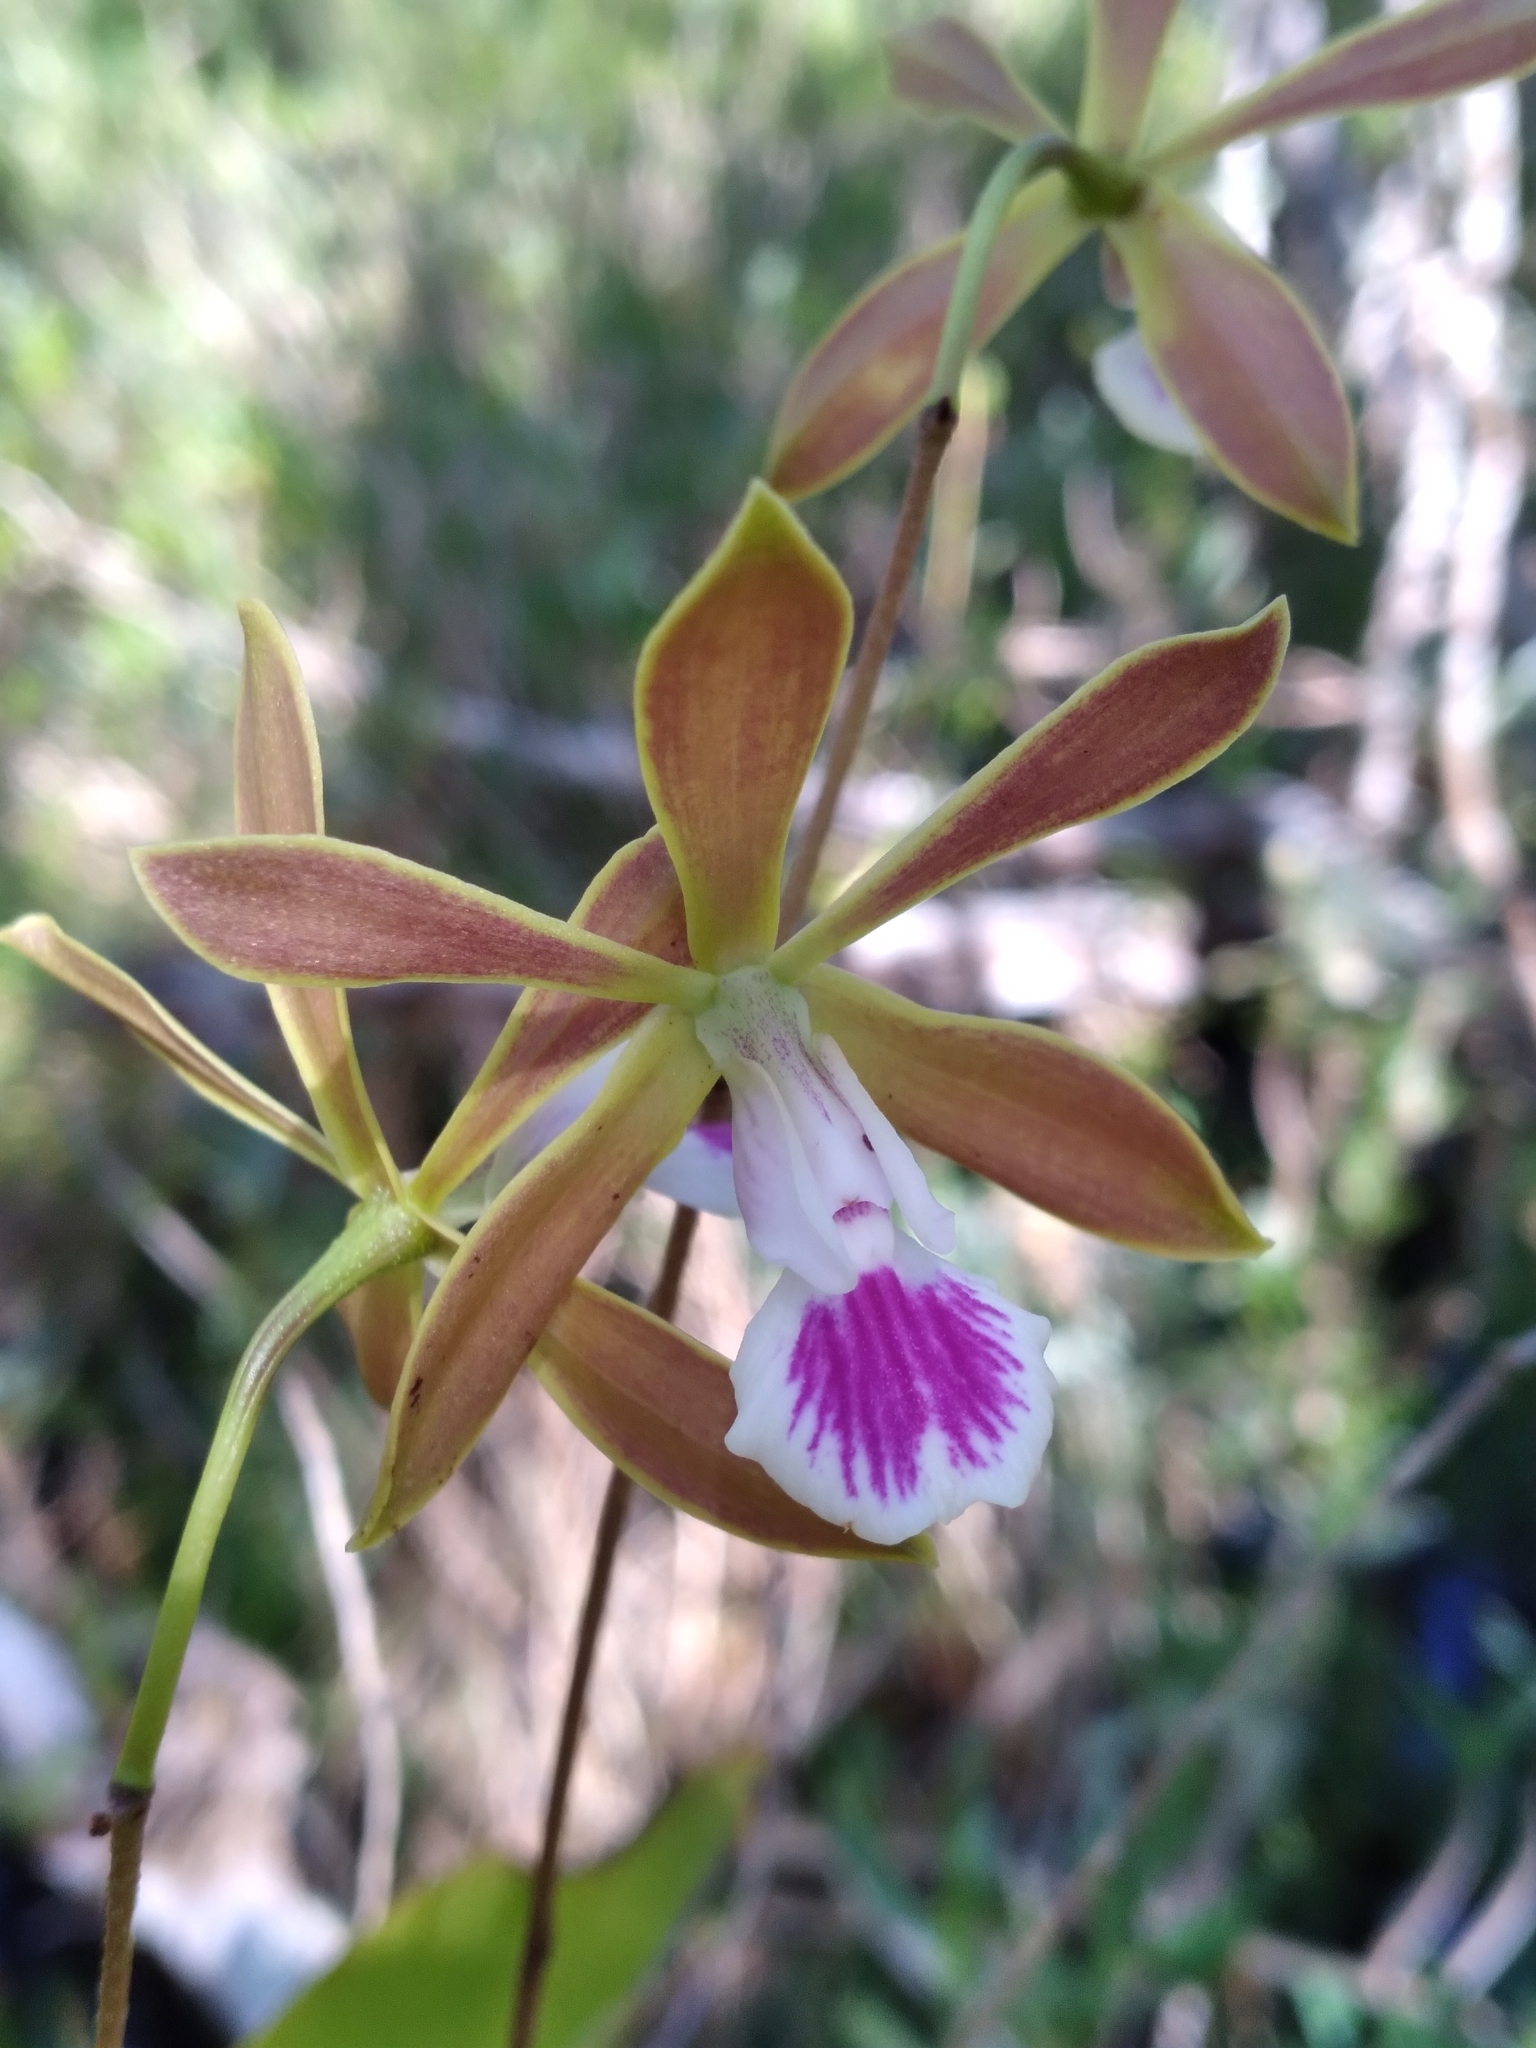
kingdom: Plantae
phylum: Tracheophyta
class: Liliopsida
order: Asparagales
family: Orchidaceae
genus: Encyclia
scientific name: Encyclia tampensis
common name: Florida butterfly orchid
